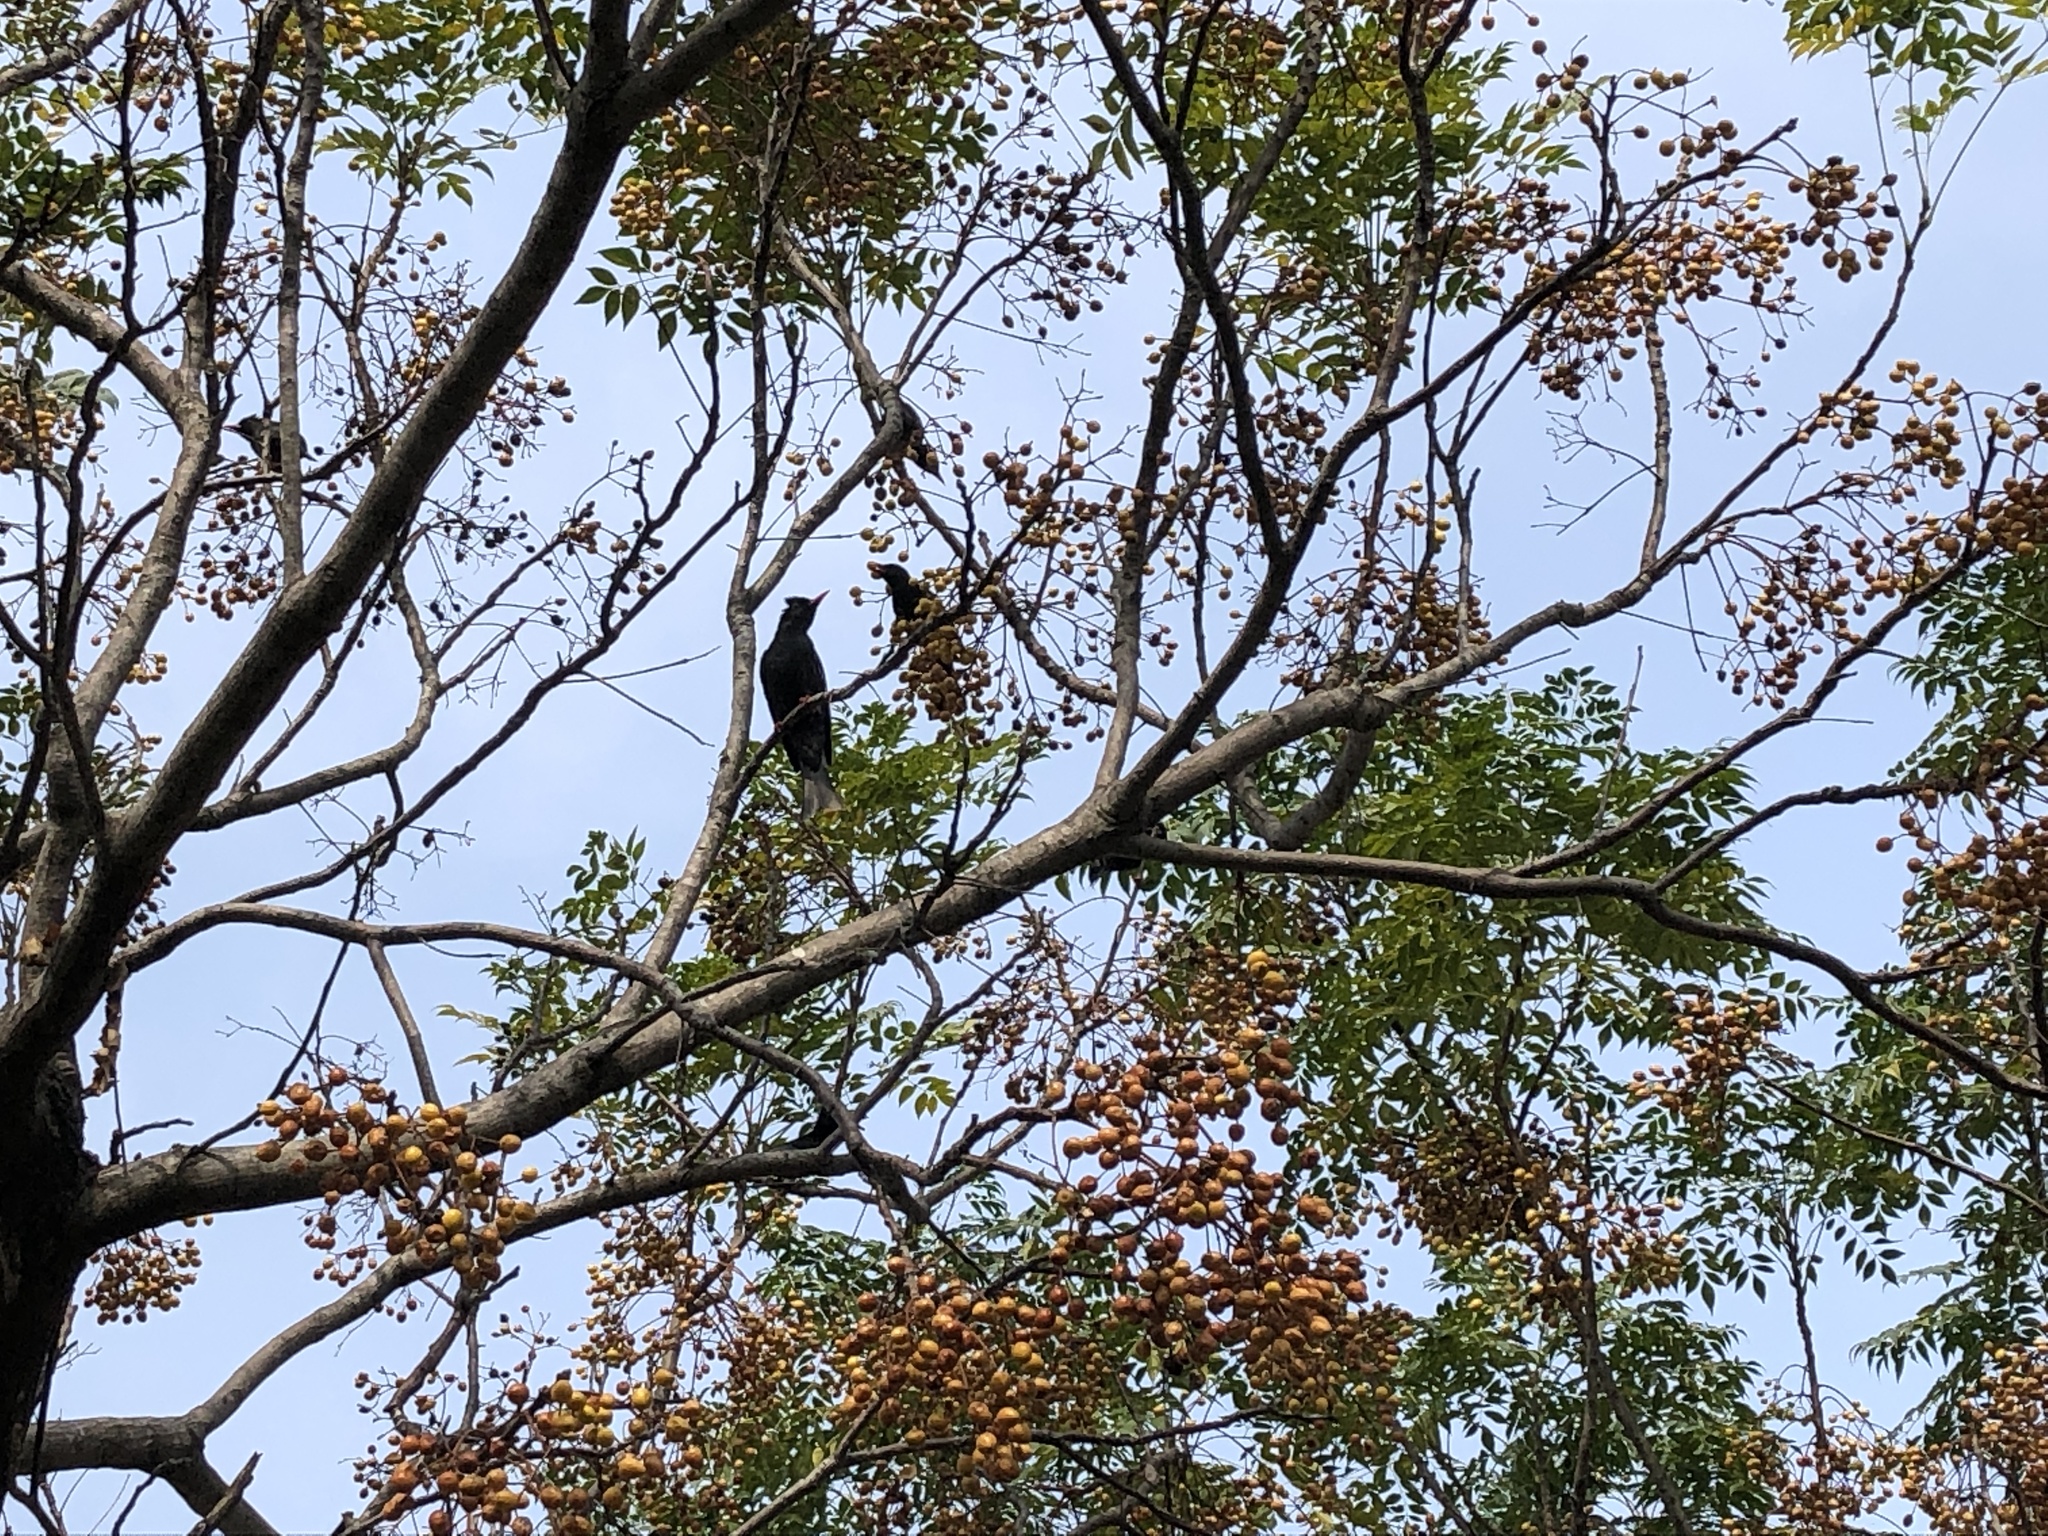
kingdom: Animalia
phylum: Chordata
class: Aves
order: Passeriformes
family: Pycnonotidae
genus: Hypsipetes
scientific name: Hypsipetes leucocephalus
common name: Black bulbul
